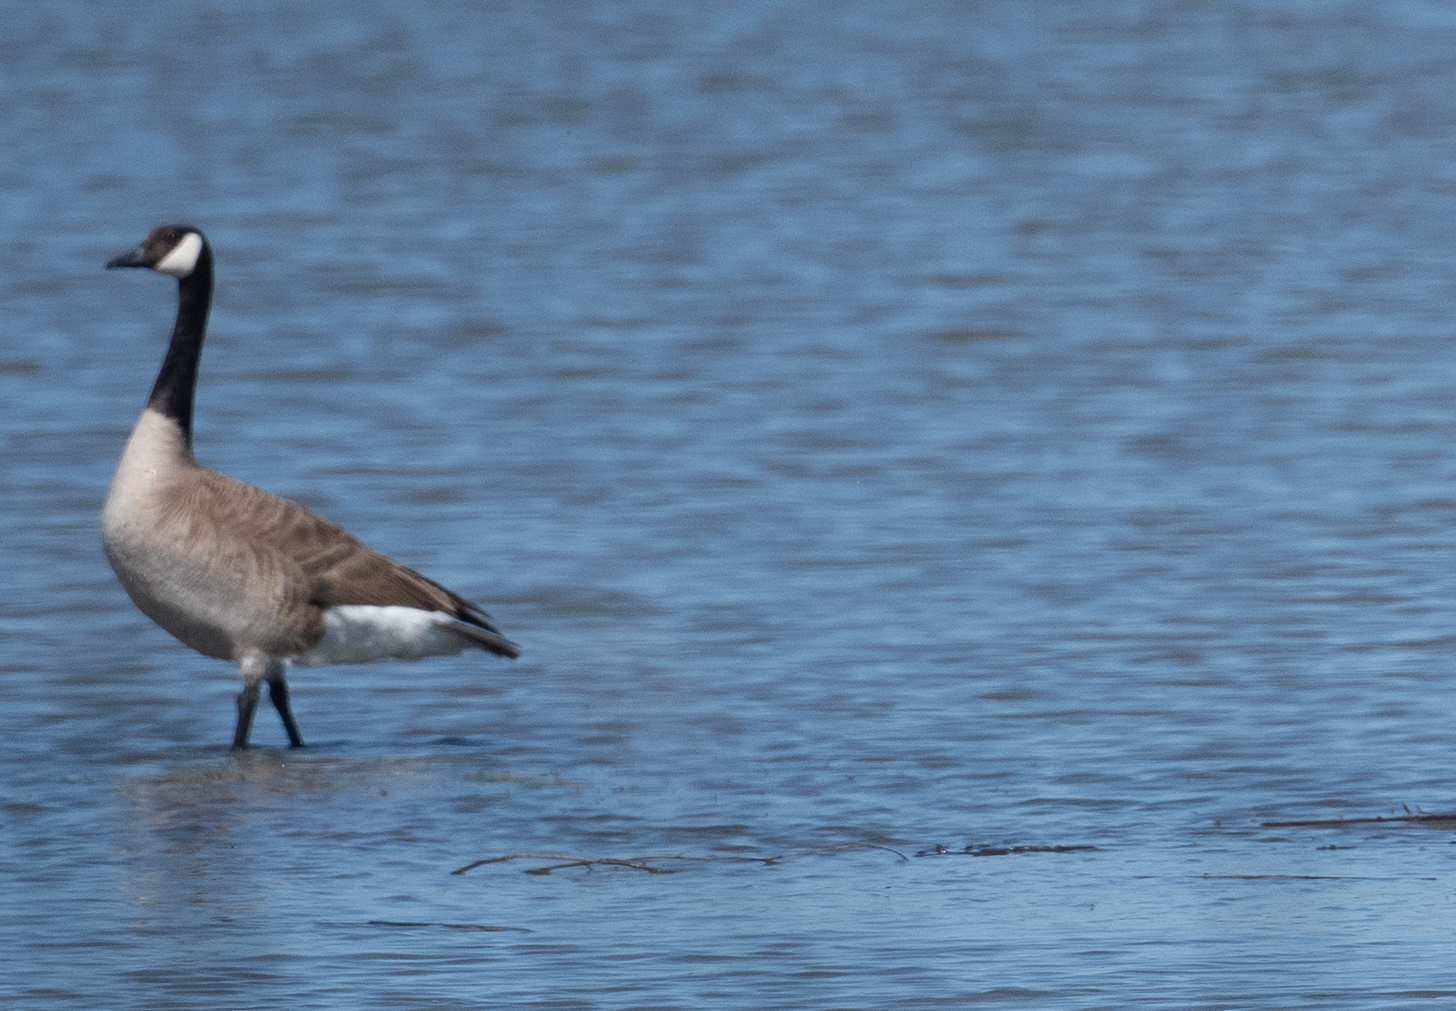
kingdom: Animalia
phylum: Chordata
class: Aves
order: Anseriformes
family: Anatidae
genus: Branta
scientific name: Branta canadensis
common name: Canada goose
